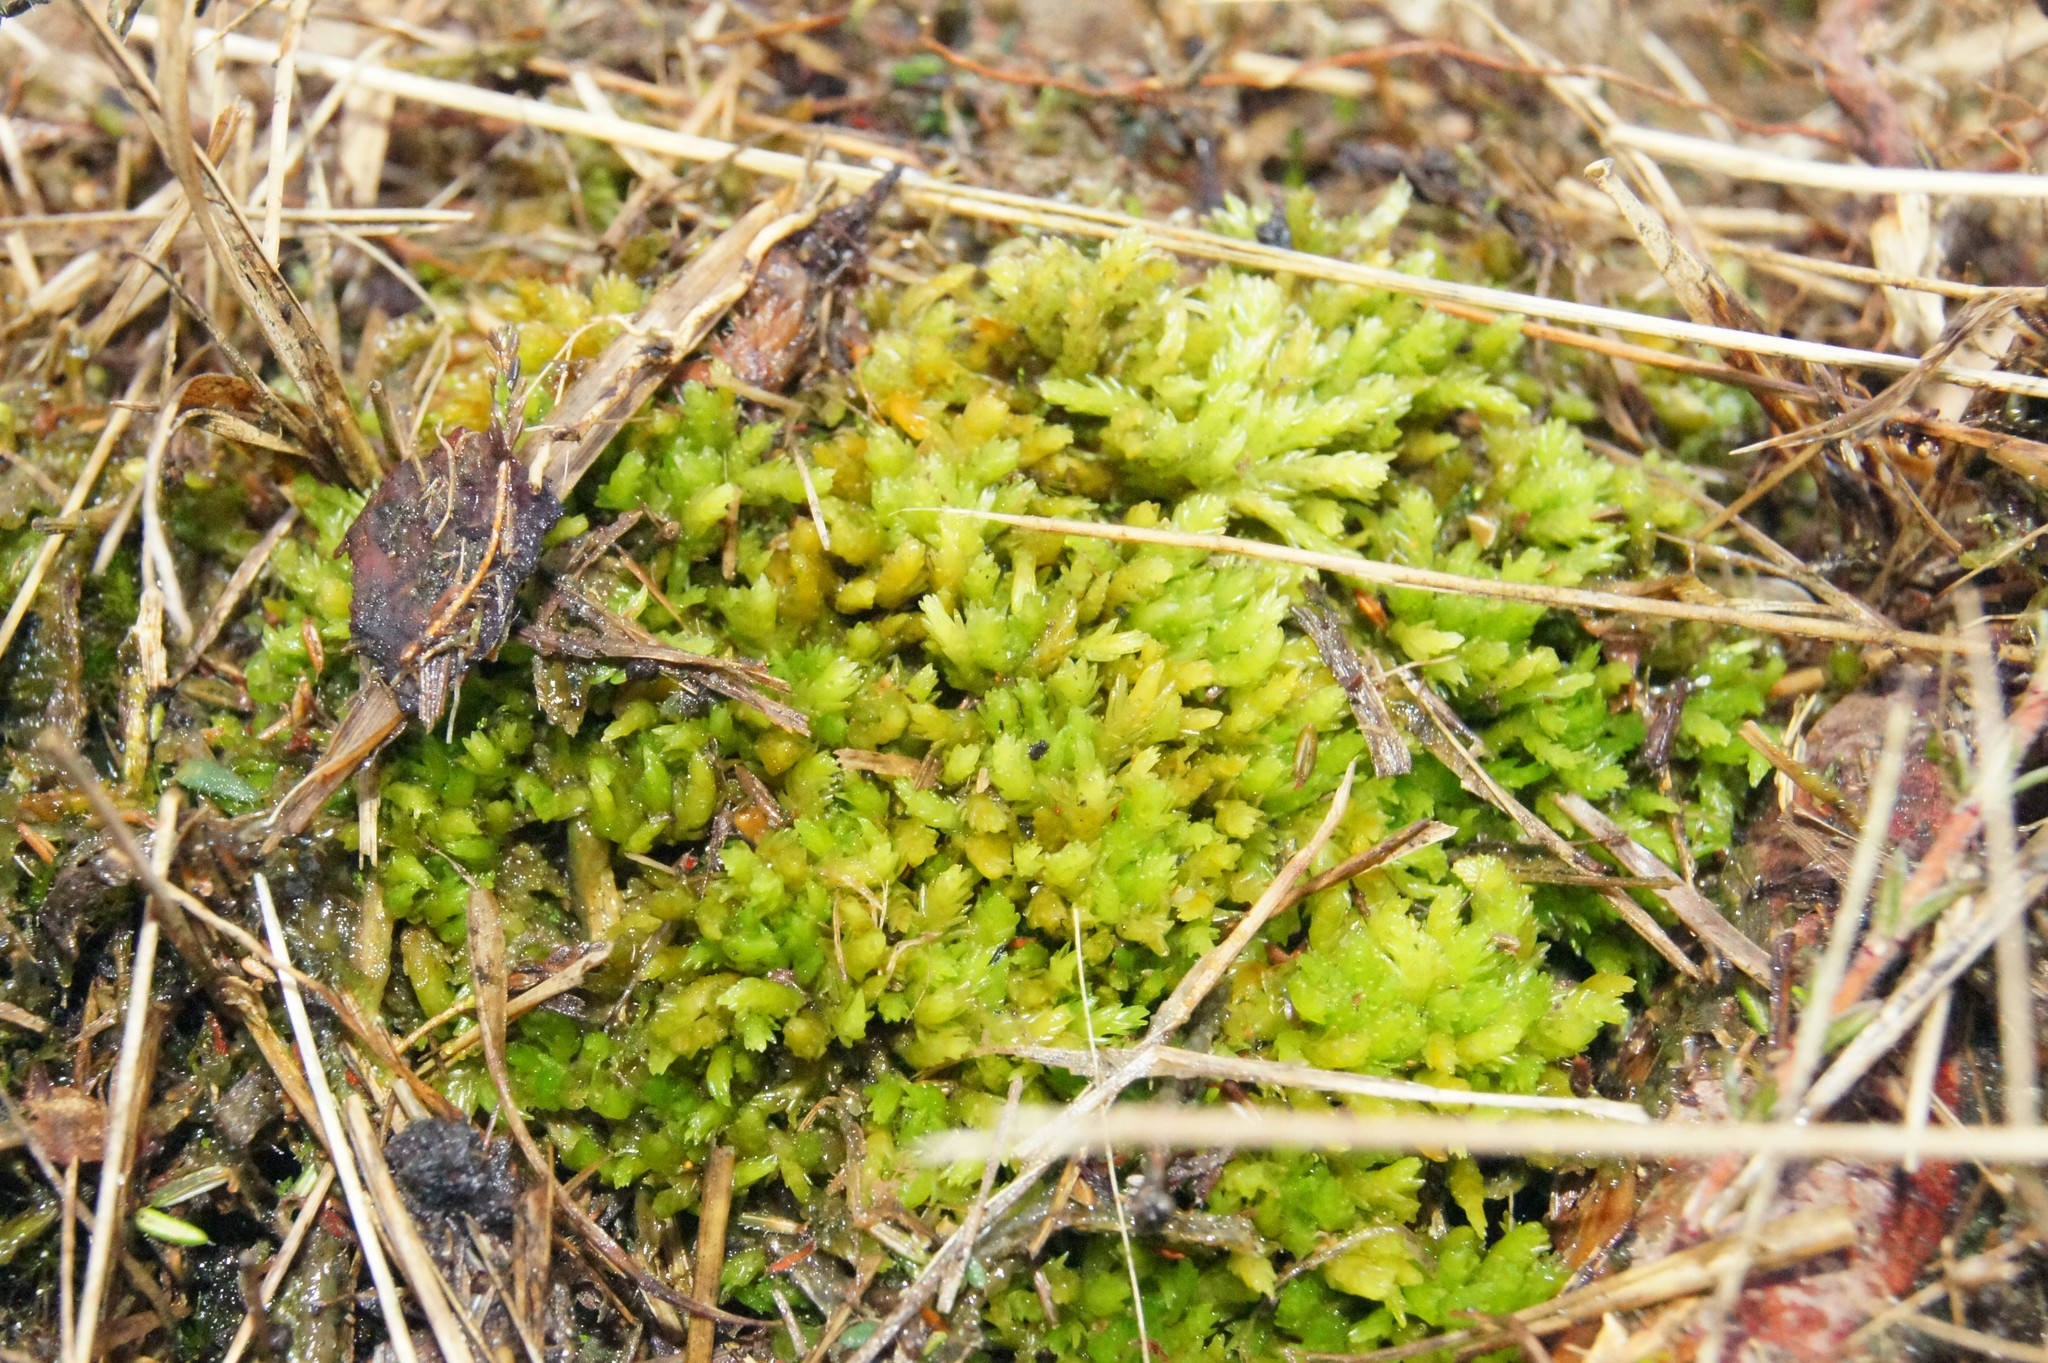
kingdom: Plantae
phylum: Bryophyta
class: Sphagnopsida
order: Sphagnales
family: Sphagnaceae
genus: Sphagnum
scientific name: Sphagnum compactum
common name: Compact peat moss
